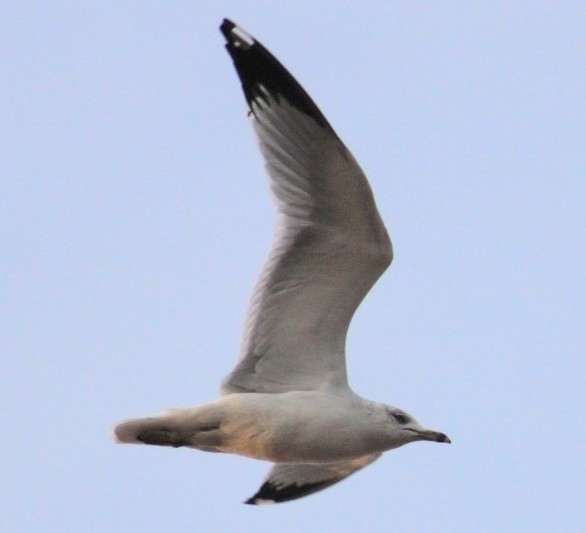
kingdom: Animalia
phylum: Chordata
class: Aves
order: Charadriiformes
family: Laridae
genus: Larus
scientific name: Larus delawarensis
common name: Ring-billed gull
